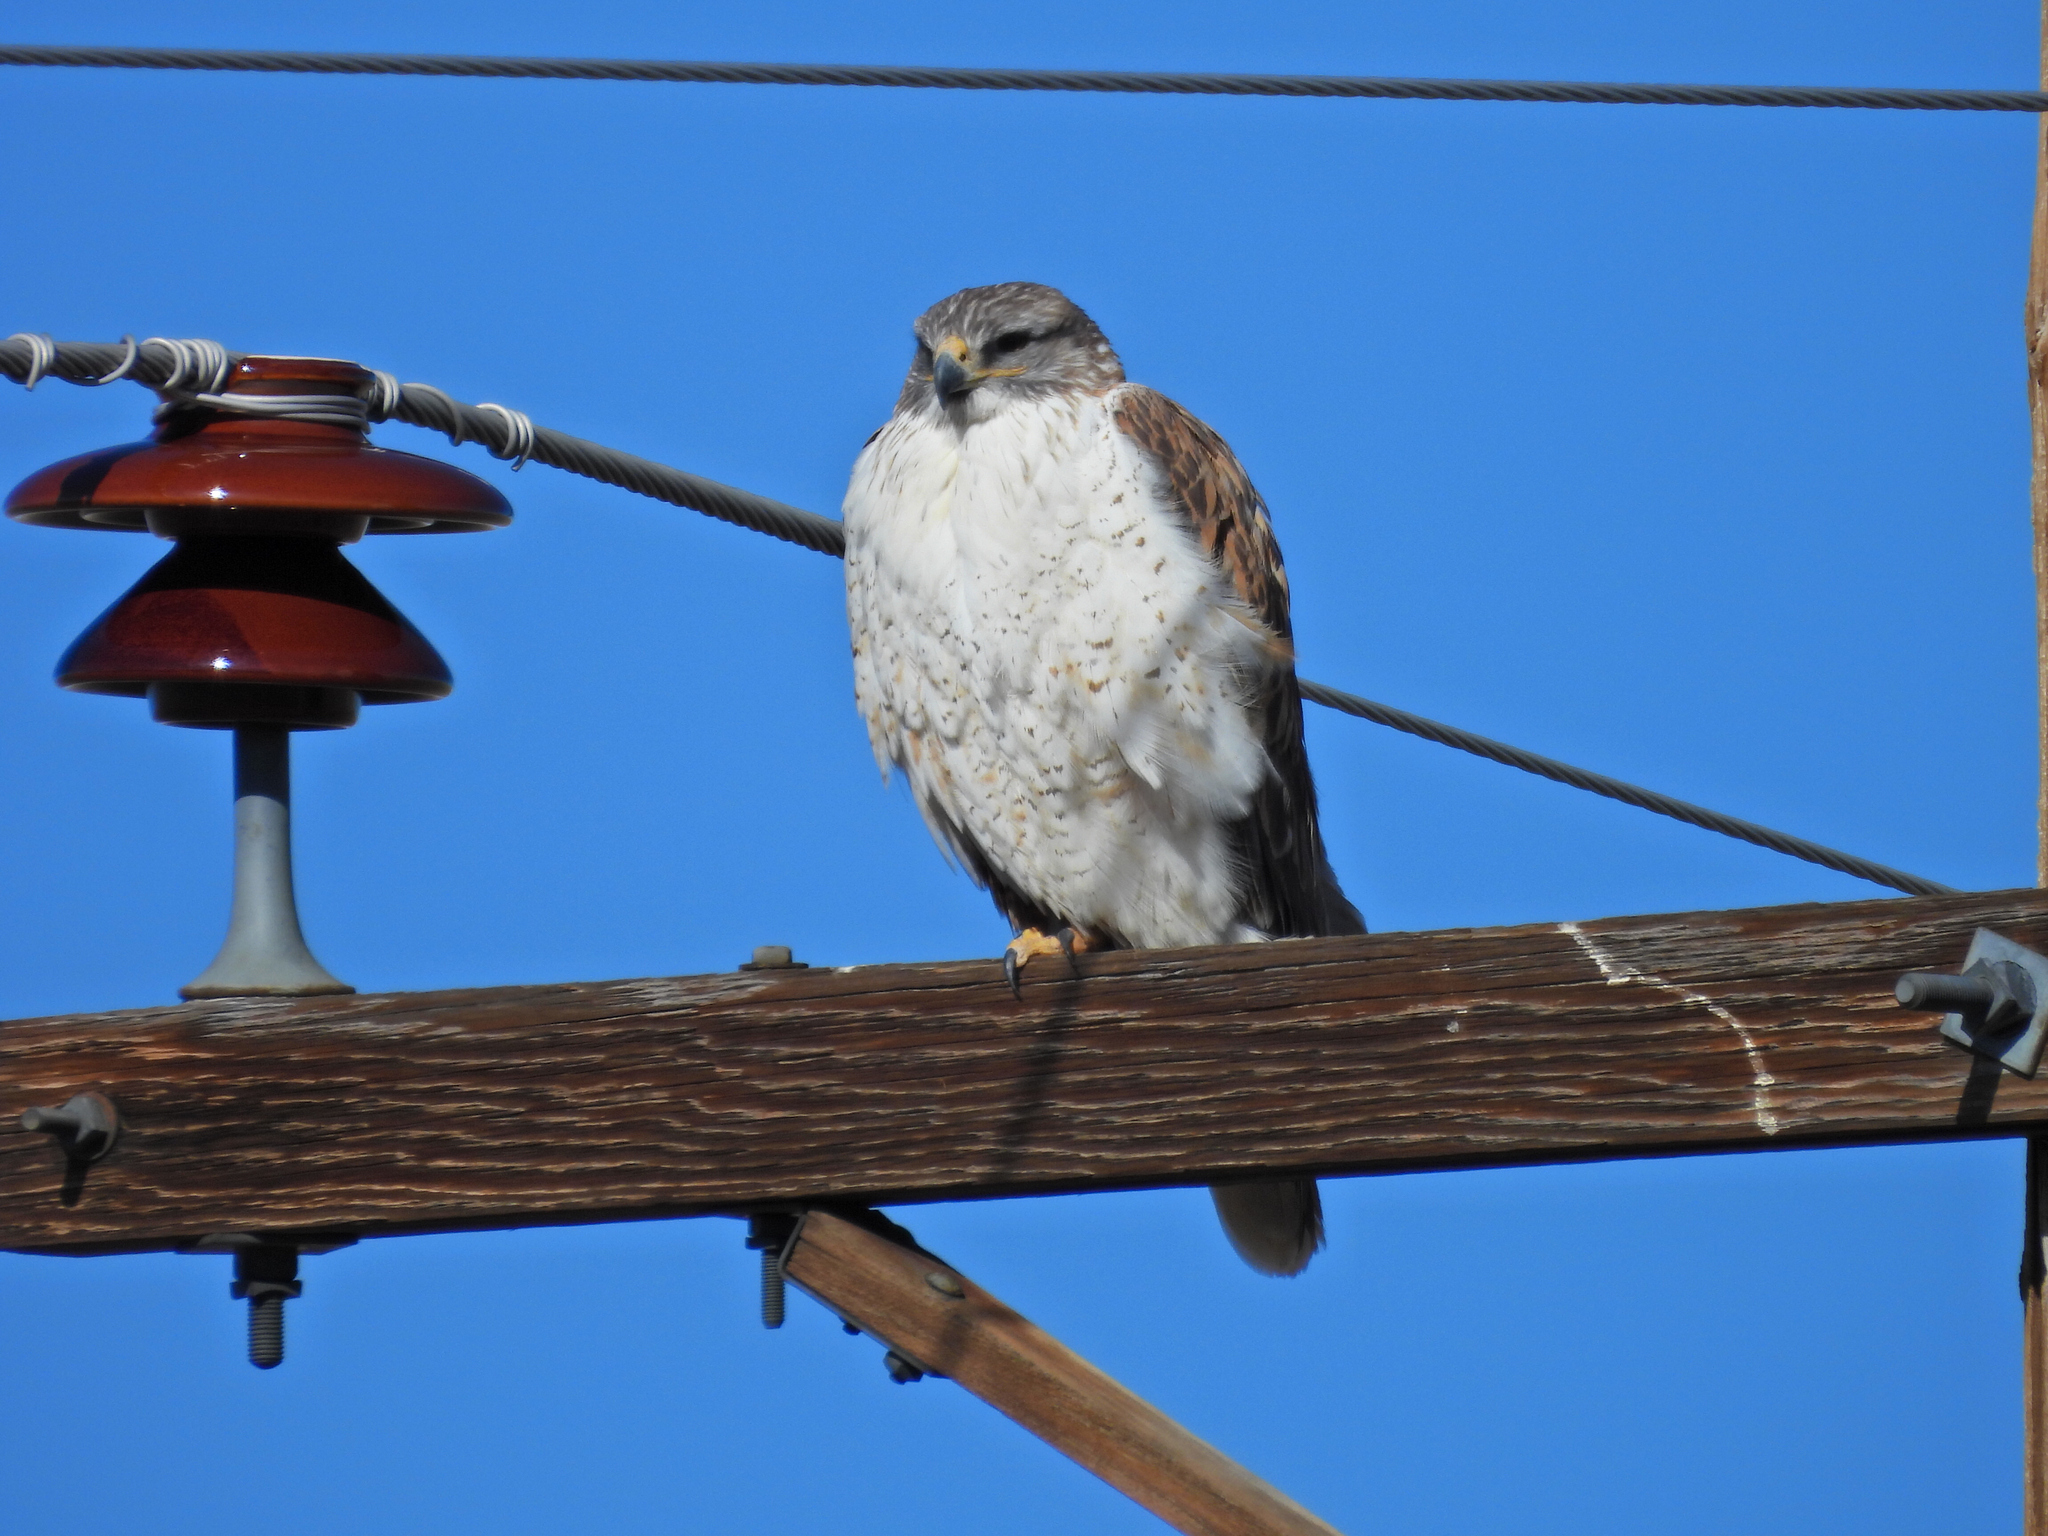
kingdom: Animalia
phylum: Chordata
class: Aves
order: Accipitriformes
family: Accipitridae
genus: Buteo
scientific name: Buteo regalis
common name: Ferruginous hawk
